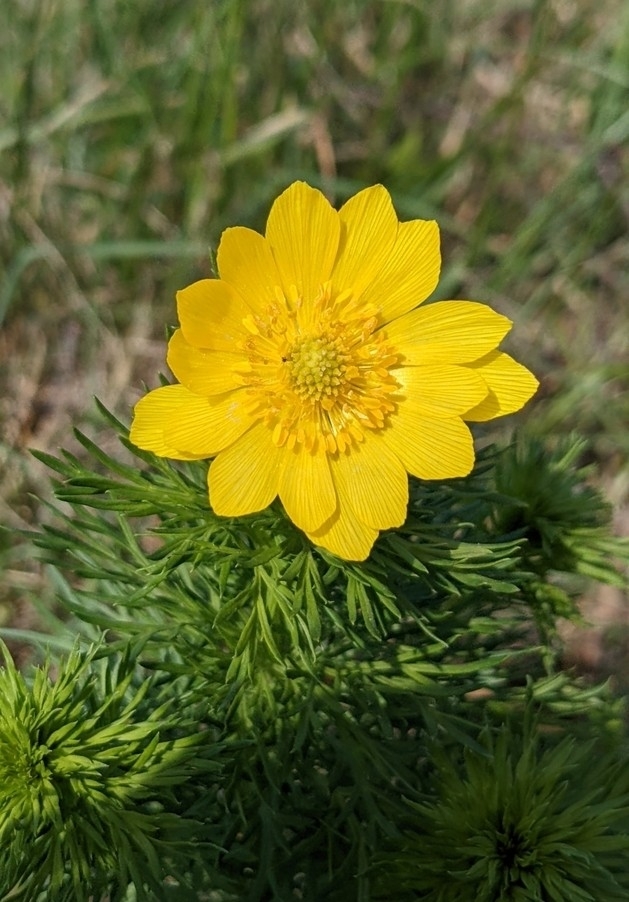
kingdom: Plantae
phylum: Tracheophyta
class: Magnoliopsida
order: Ranunculales
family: Ranunculaceae
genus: Adonis
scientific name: Adonis vernalis
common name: Yellow pheasants-eye
